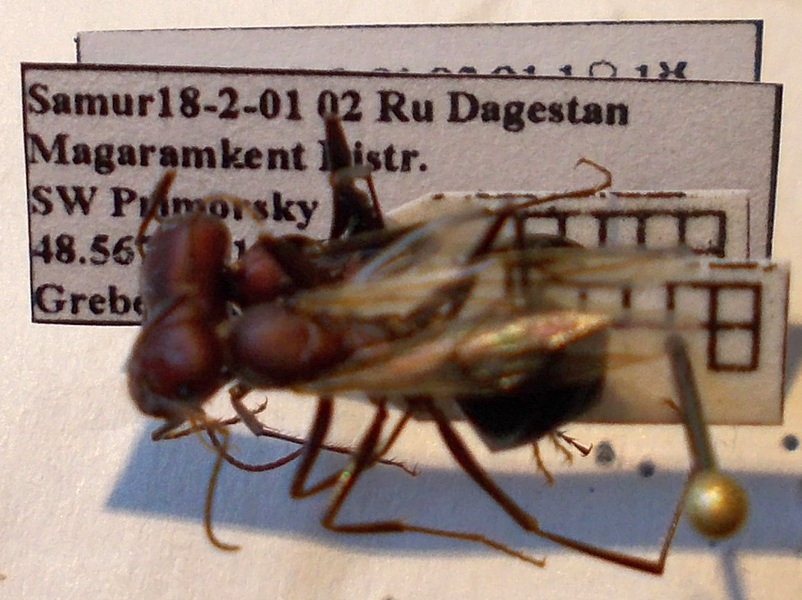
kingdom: Animalia
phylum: Arthropoda
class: Insecta
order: Hymenoptera
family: Formicidae
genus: Cataglyphis
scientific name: Cataglyphis nodus
